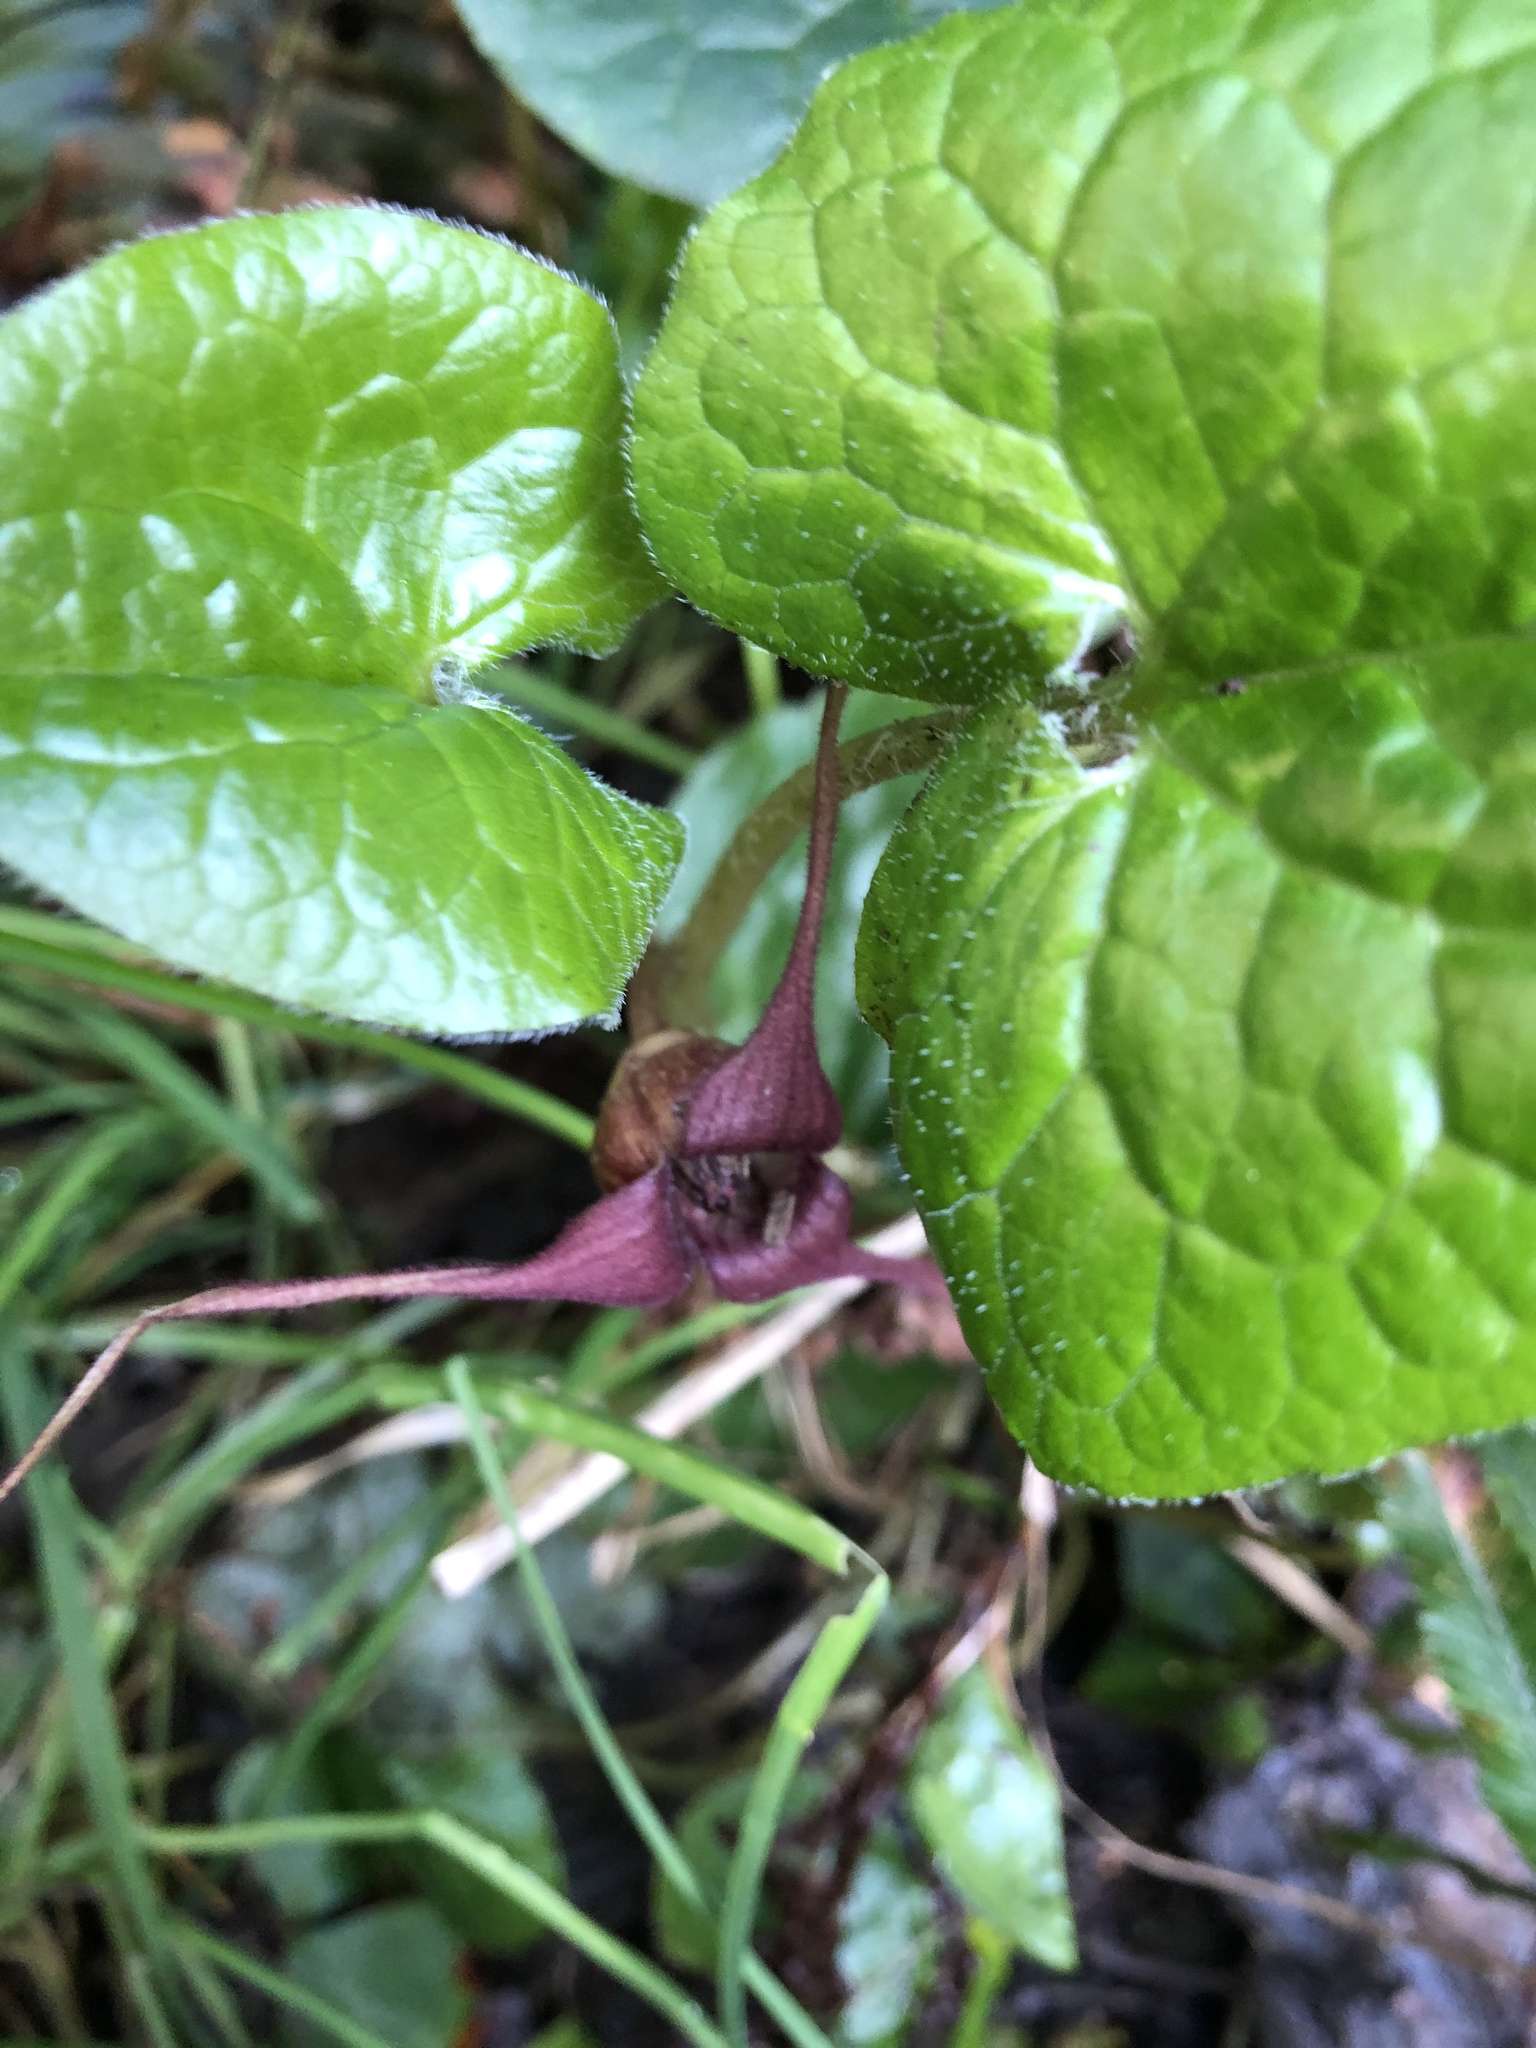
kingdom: Plantae
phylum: Tracheophyta
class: Magnoliopsida
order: Piperales
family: Aristolochiaceae
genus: Asarum
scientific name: Asarum caudatum
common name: Wild ginger
